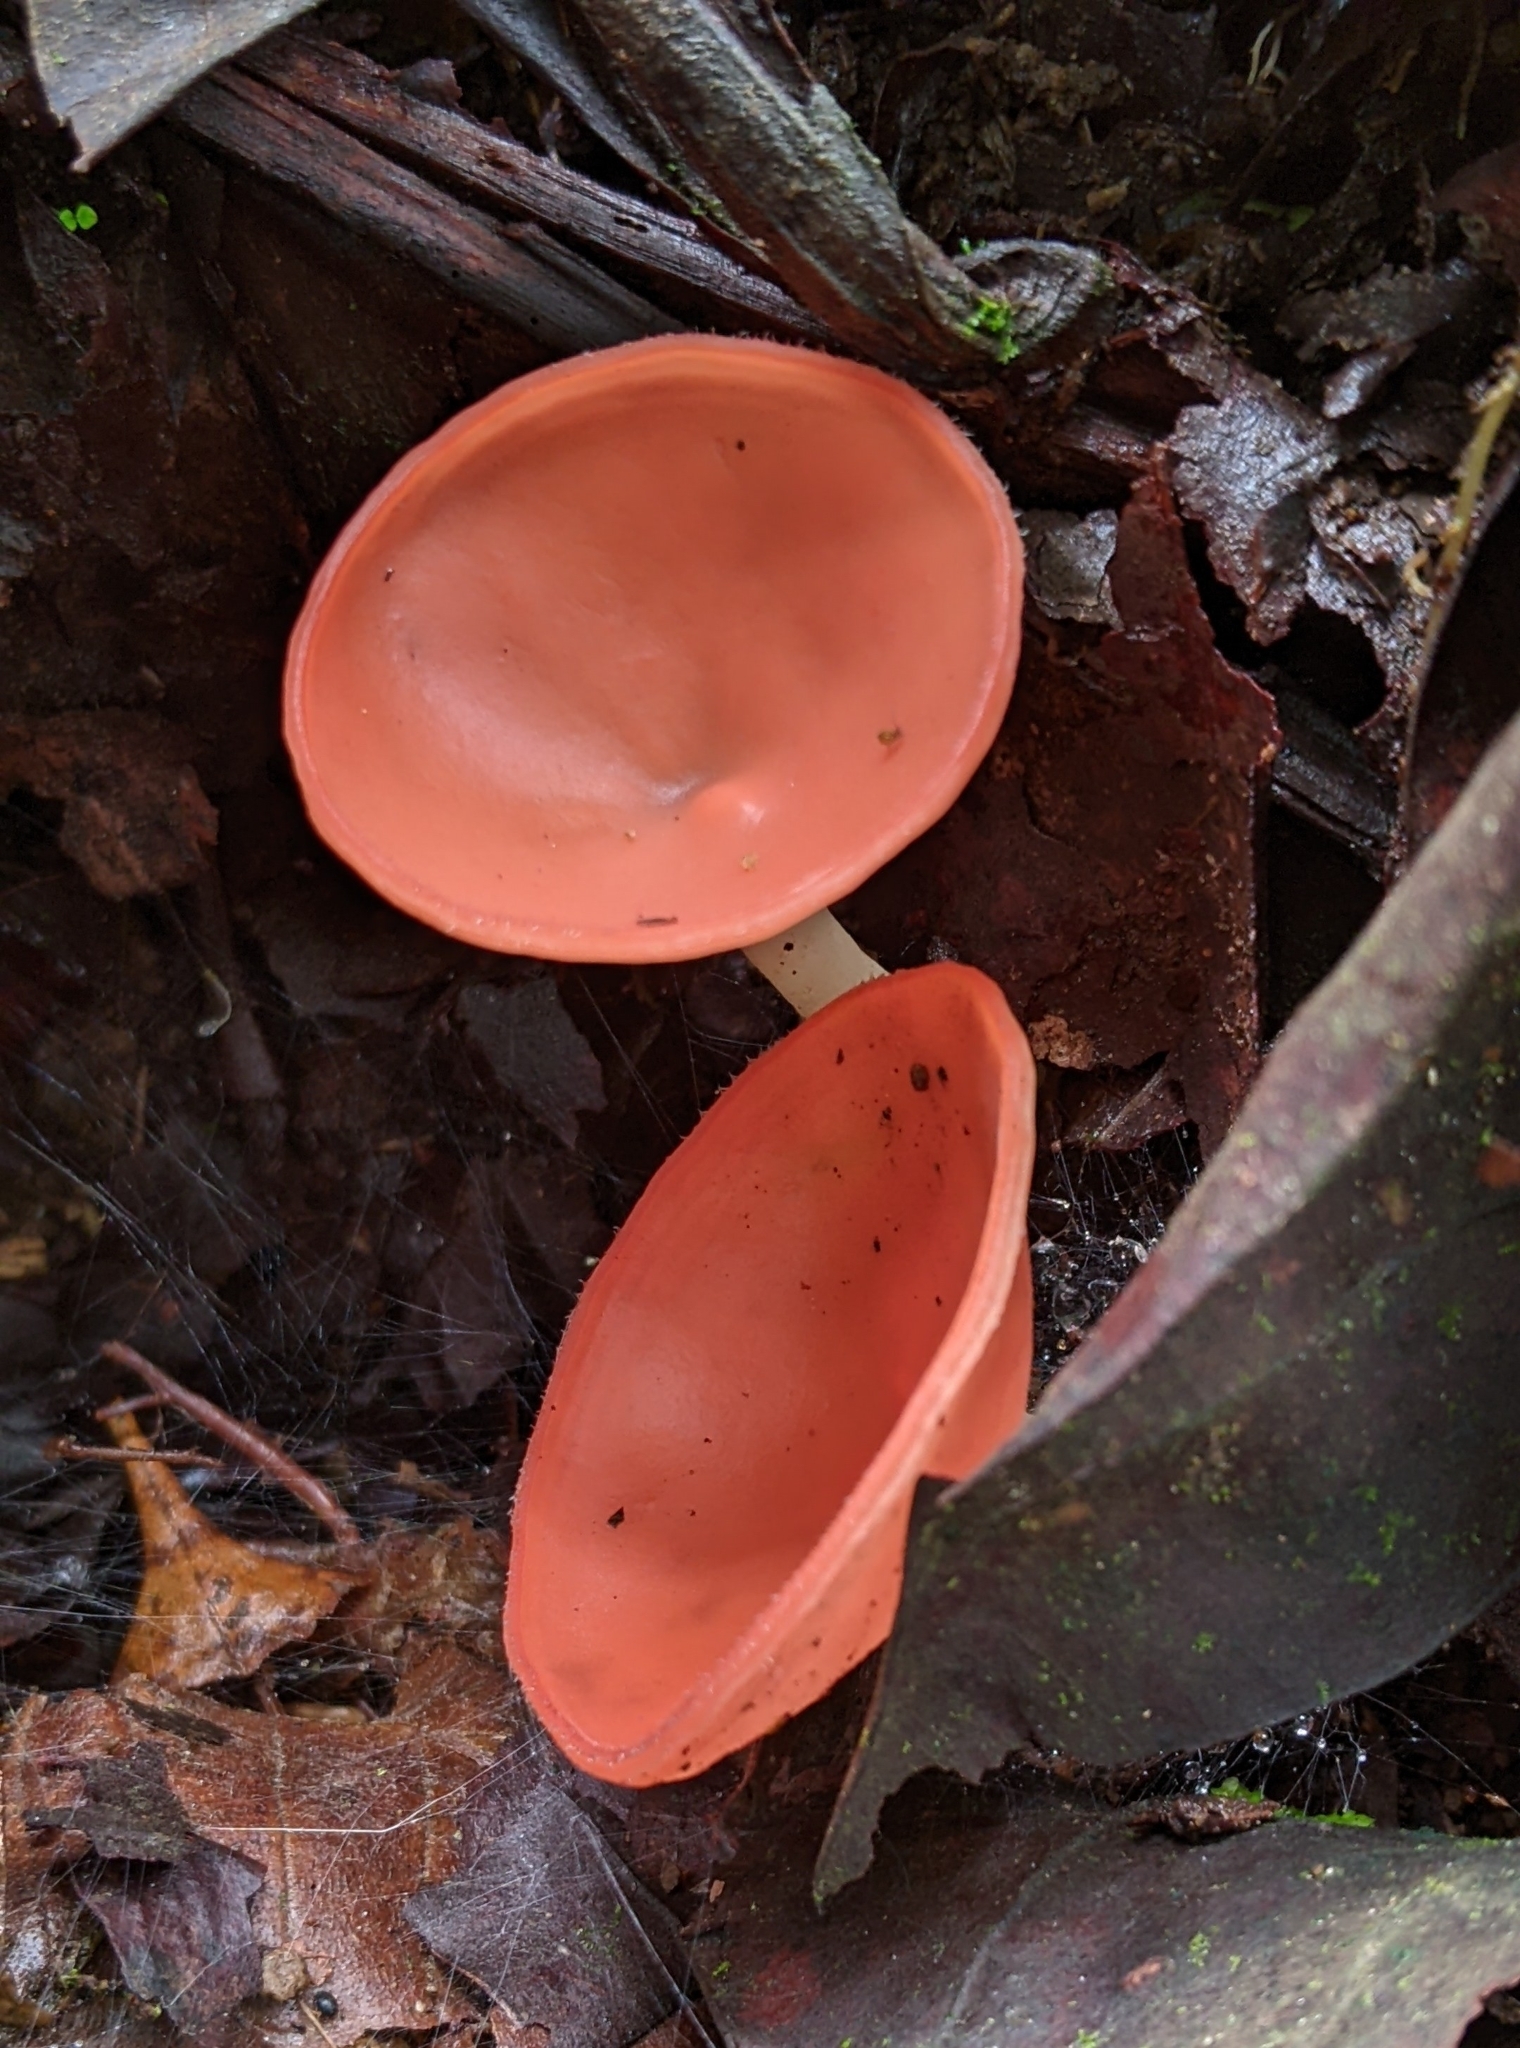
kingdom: Fungi
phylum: Ascomycota
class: Pezizomycetes
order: Pezizales
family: Sarcoscyphaceae
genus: Cookeina
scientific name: Cookeina speciosa
